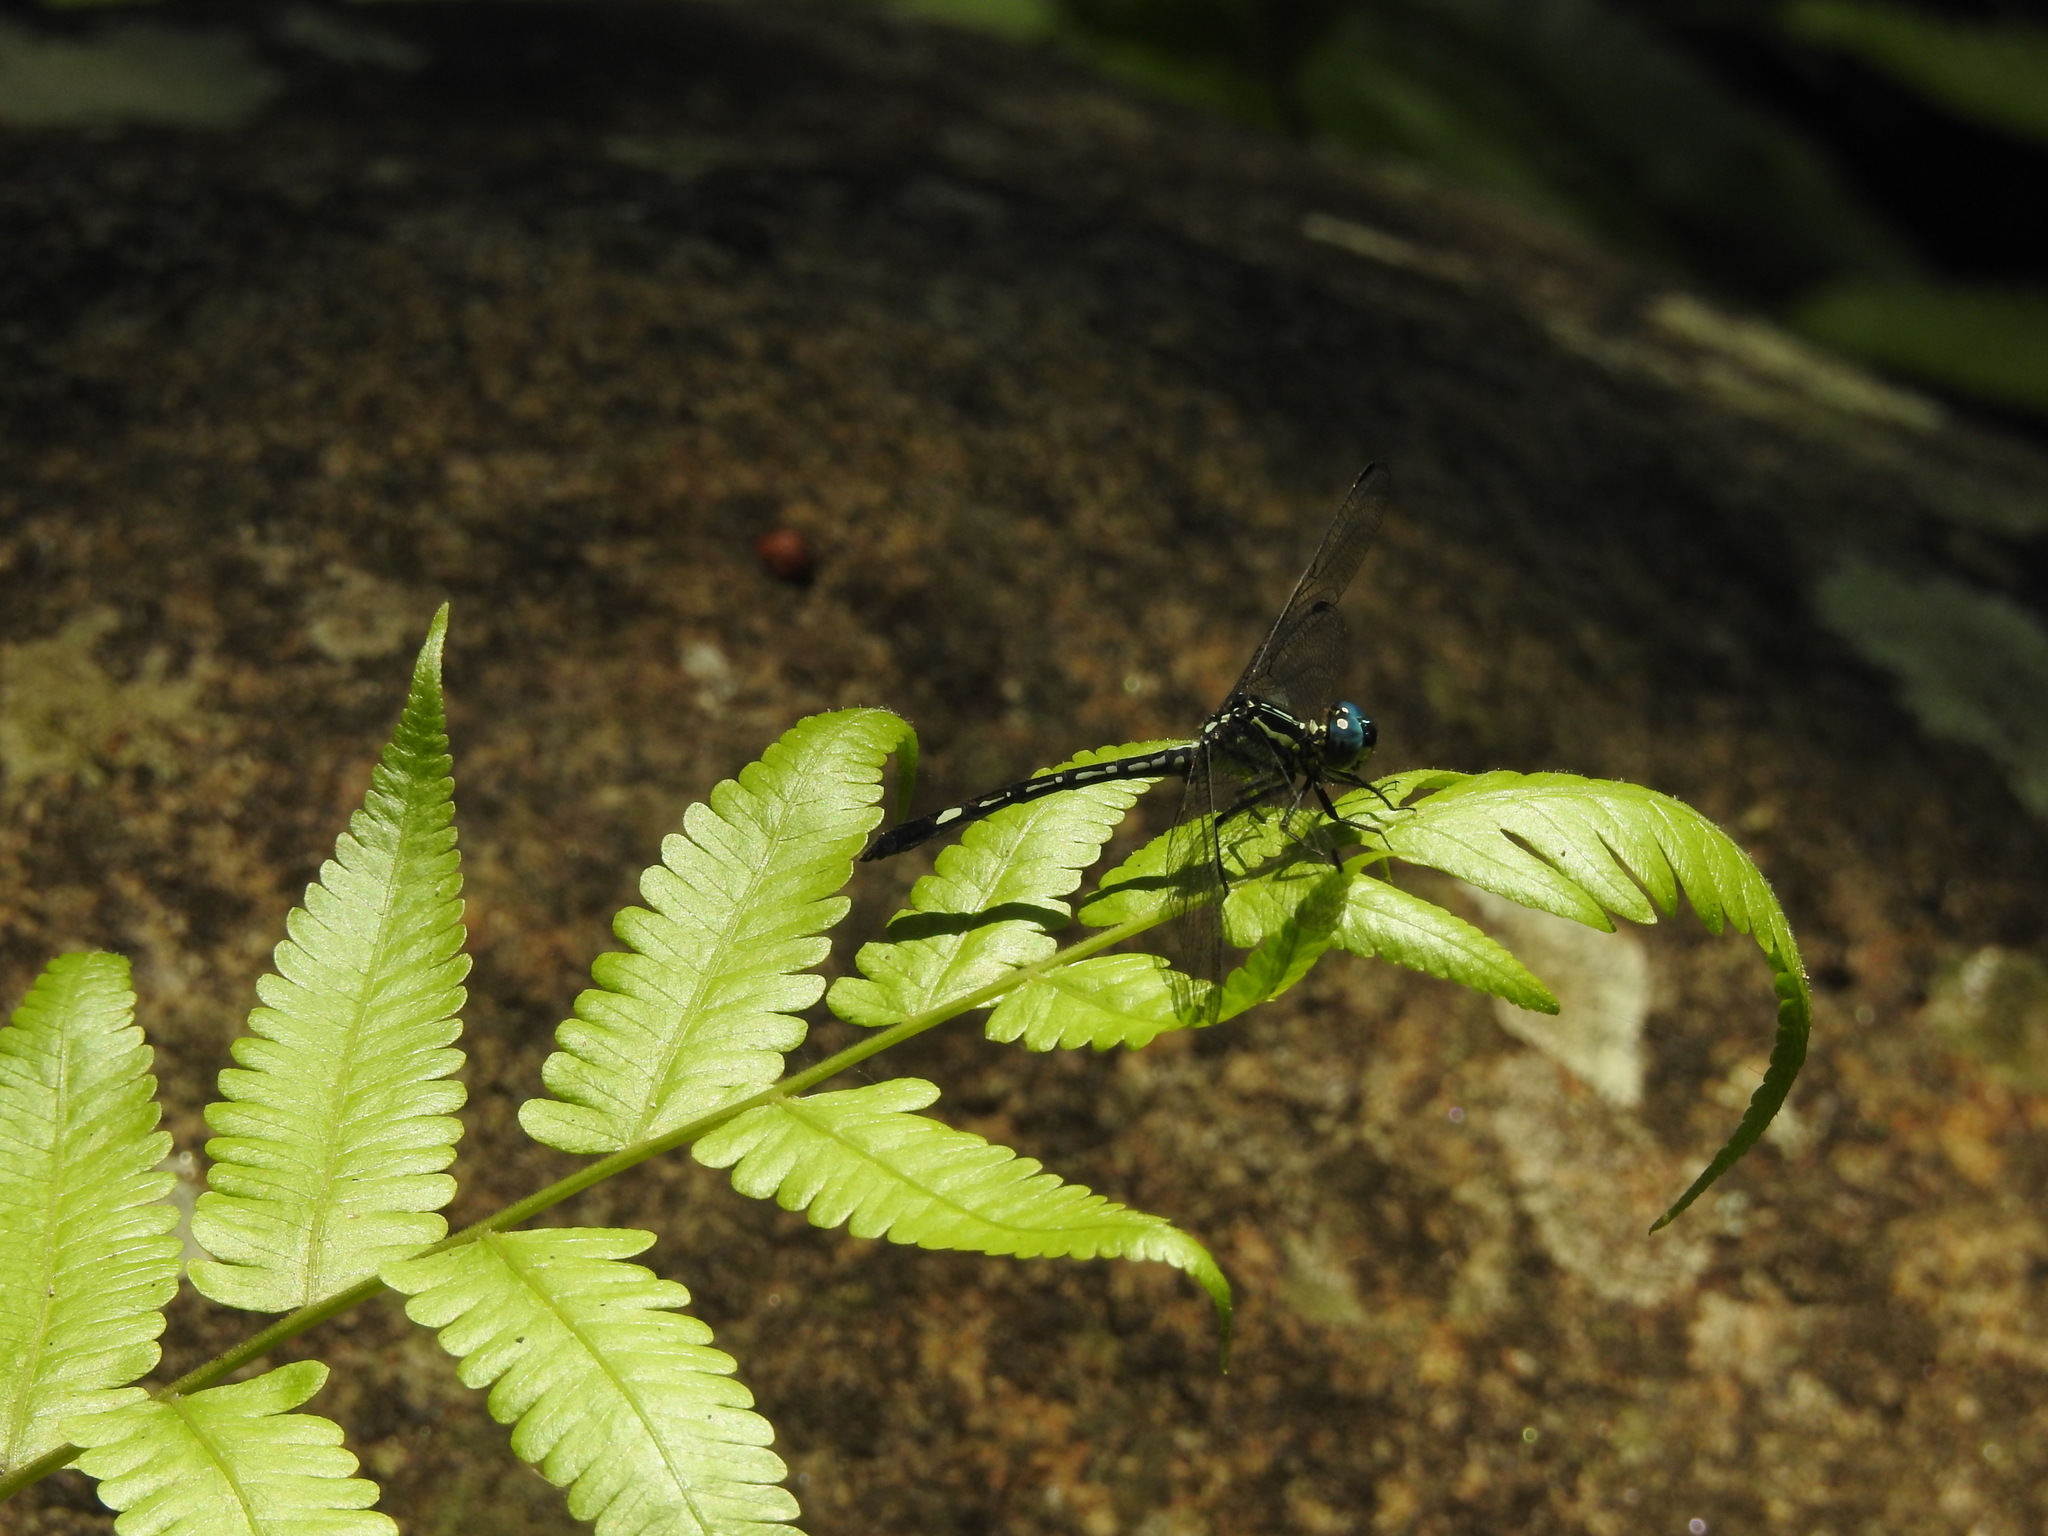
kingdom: Animalia
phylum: Arthropoda
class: Insecta
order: Odonata
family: Libellulidae
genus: Hylaeothemis
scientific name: Hylaeothemis apicalis
